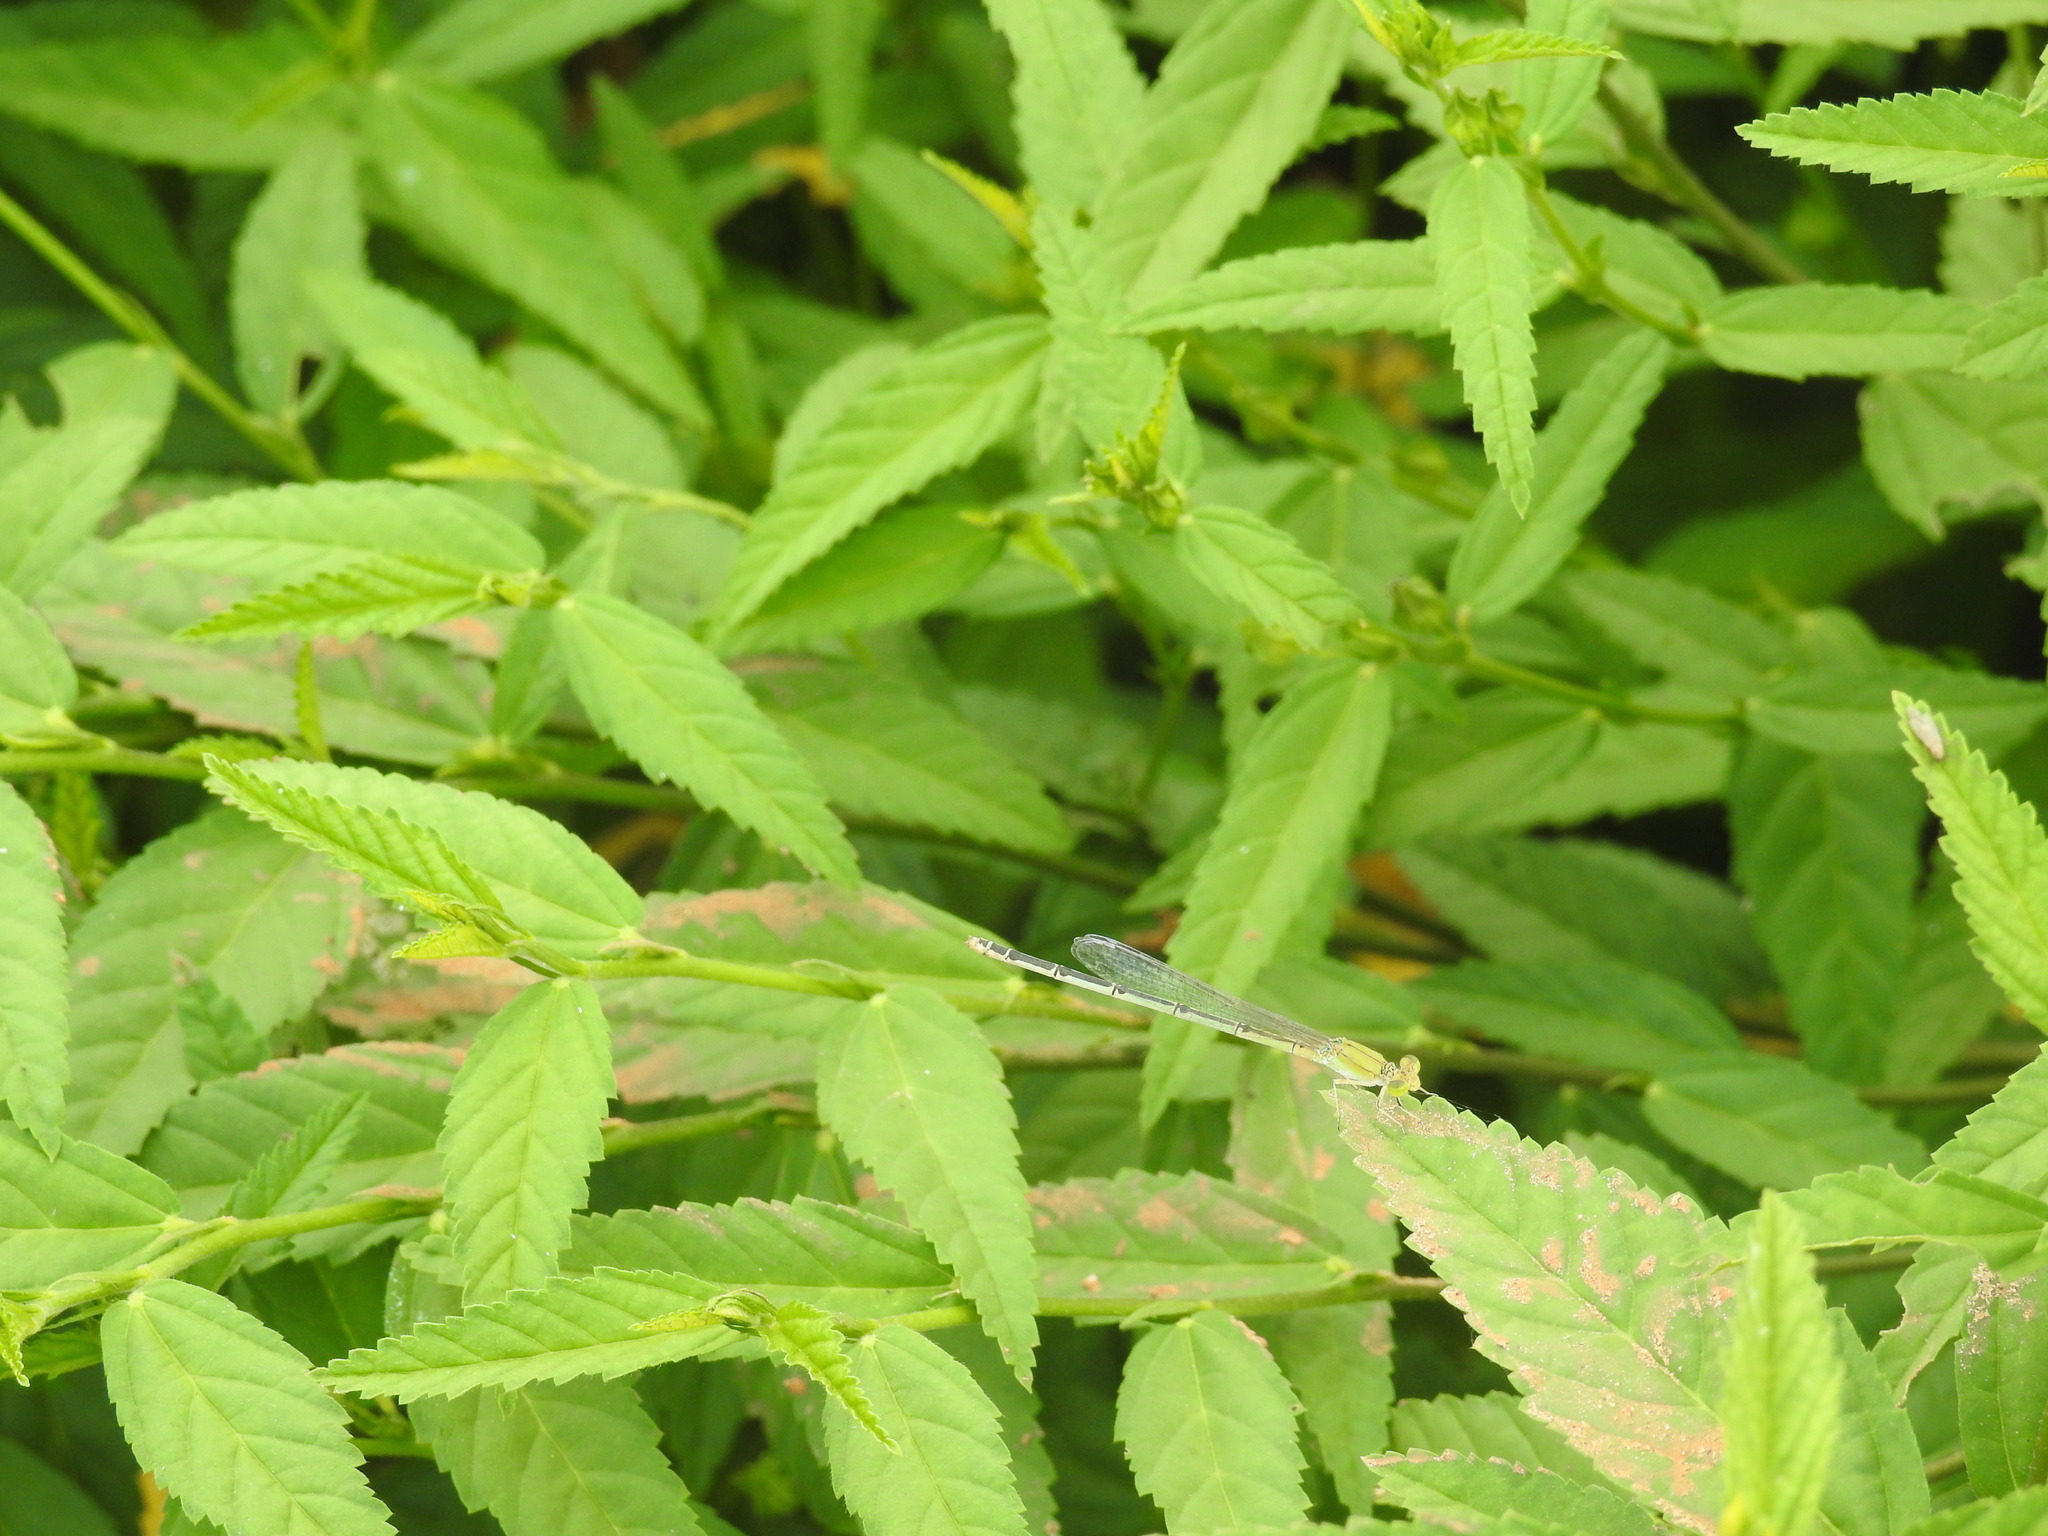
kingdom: Animalia
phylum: Arthropoda
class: Insecta
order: Odonata
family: Coenagrionidae
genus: Pseudagrion
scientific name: Pseudagrion decorum
